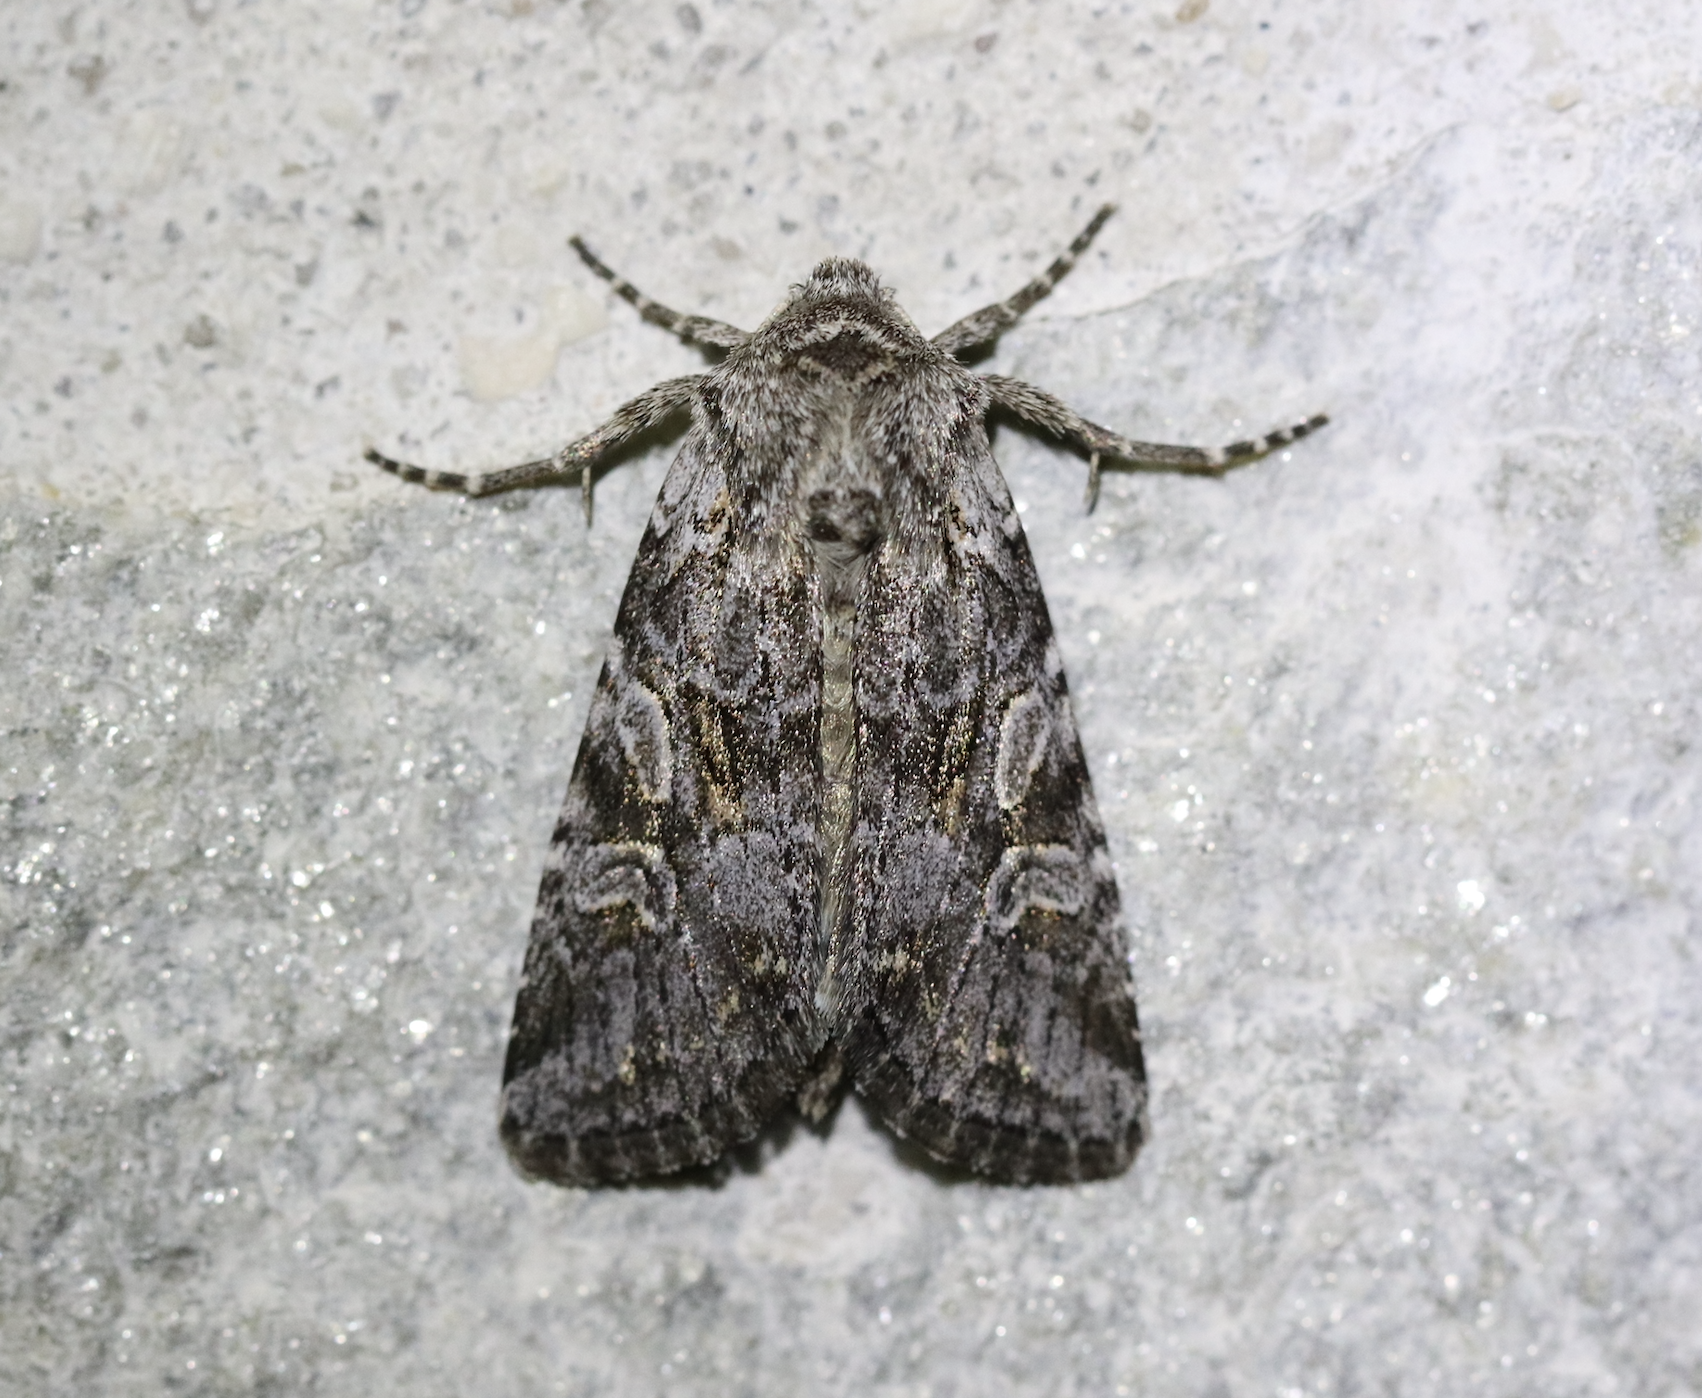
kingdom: Animalia
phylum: Arthropoda
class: Insecta
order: Lepidoptera
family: Noctuidae
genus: Lasionycta
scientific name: Lasionycta proxima
